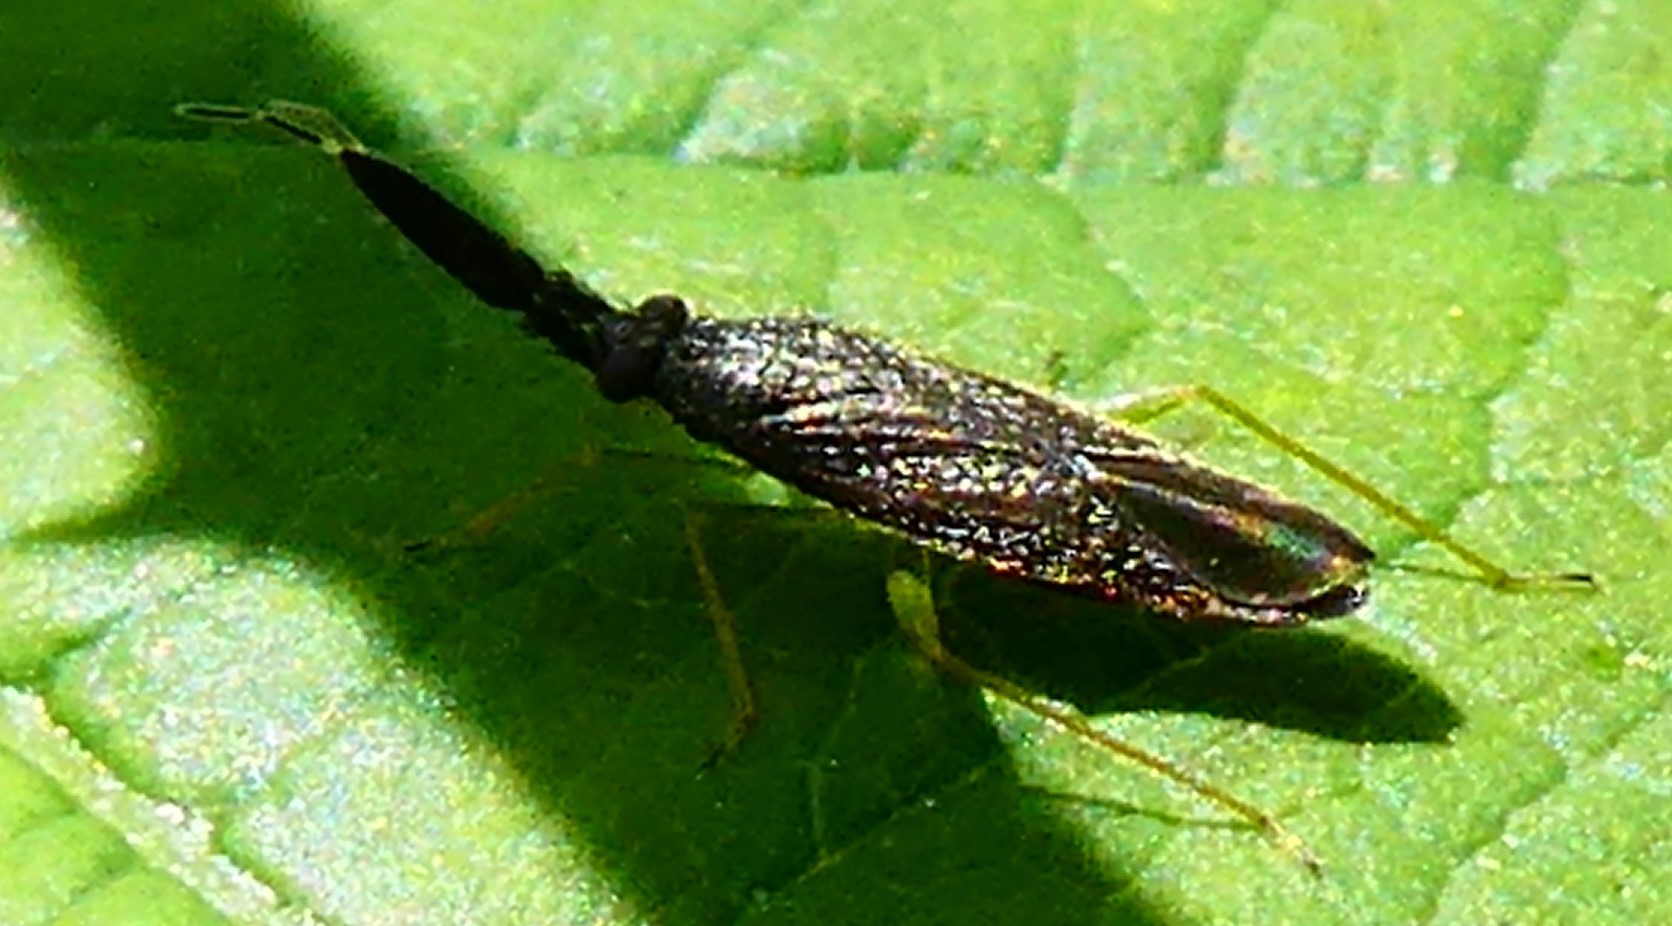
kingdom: Animalia
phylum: Arthropoda
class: Insecta
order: Hemiptera
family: Miridae
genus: Heterotoma
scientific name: Heterotoma planicornis
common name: Plant bug
